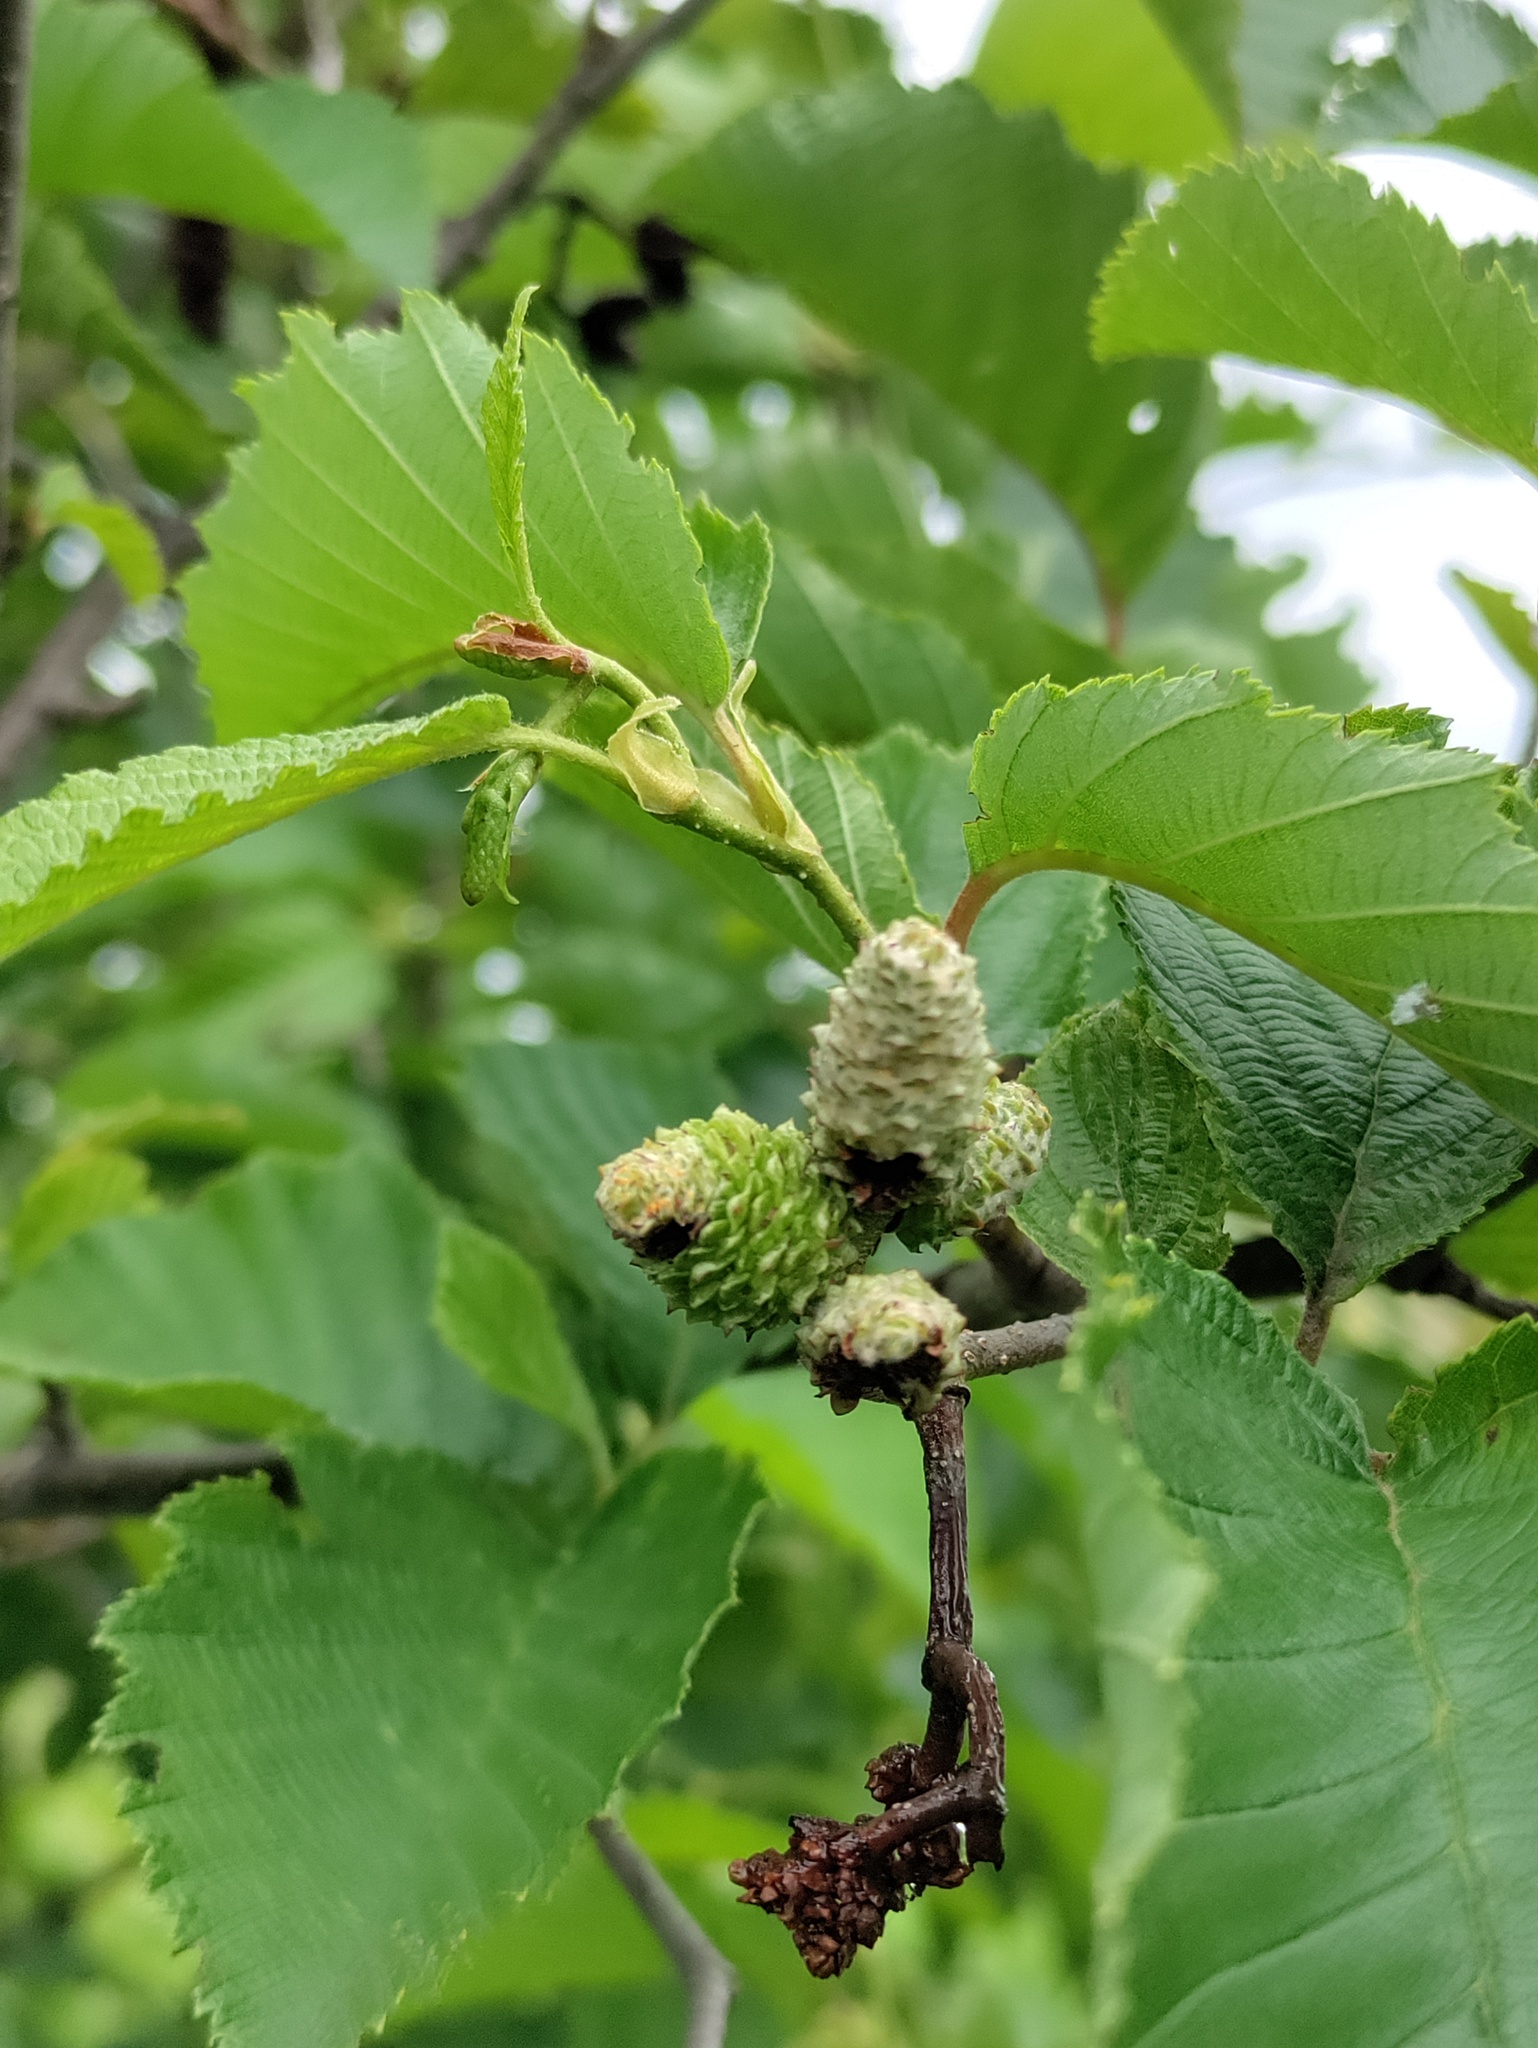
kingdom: Plantae
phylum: Tracheophyta
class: Magnoliopsida
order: Fagales
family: Betulaceae
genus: Alnus
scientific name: Alnus incana
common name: Grey alder
